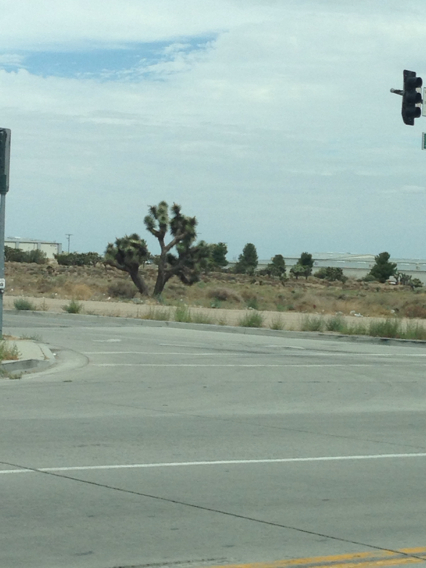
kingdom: Plantae
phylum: Tracheophyta
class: Liliopsida
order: Asparagales
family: Asparagaceae
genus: Yucca
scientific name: Yucca brevifolia
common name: Joshua tree
